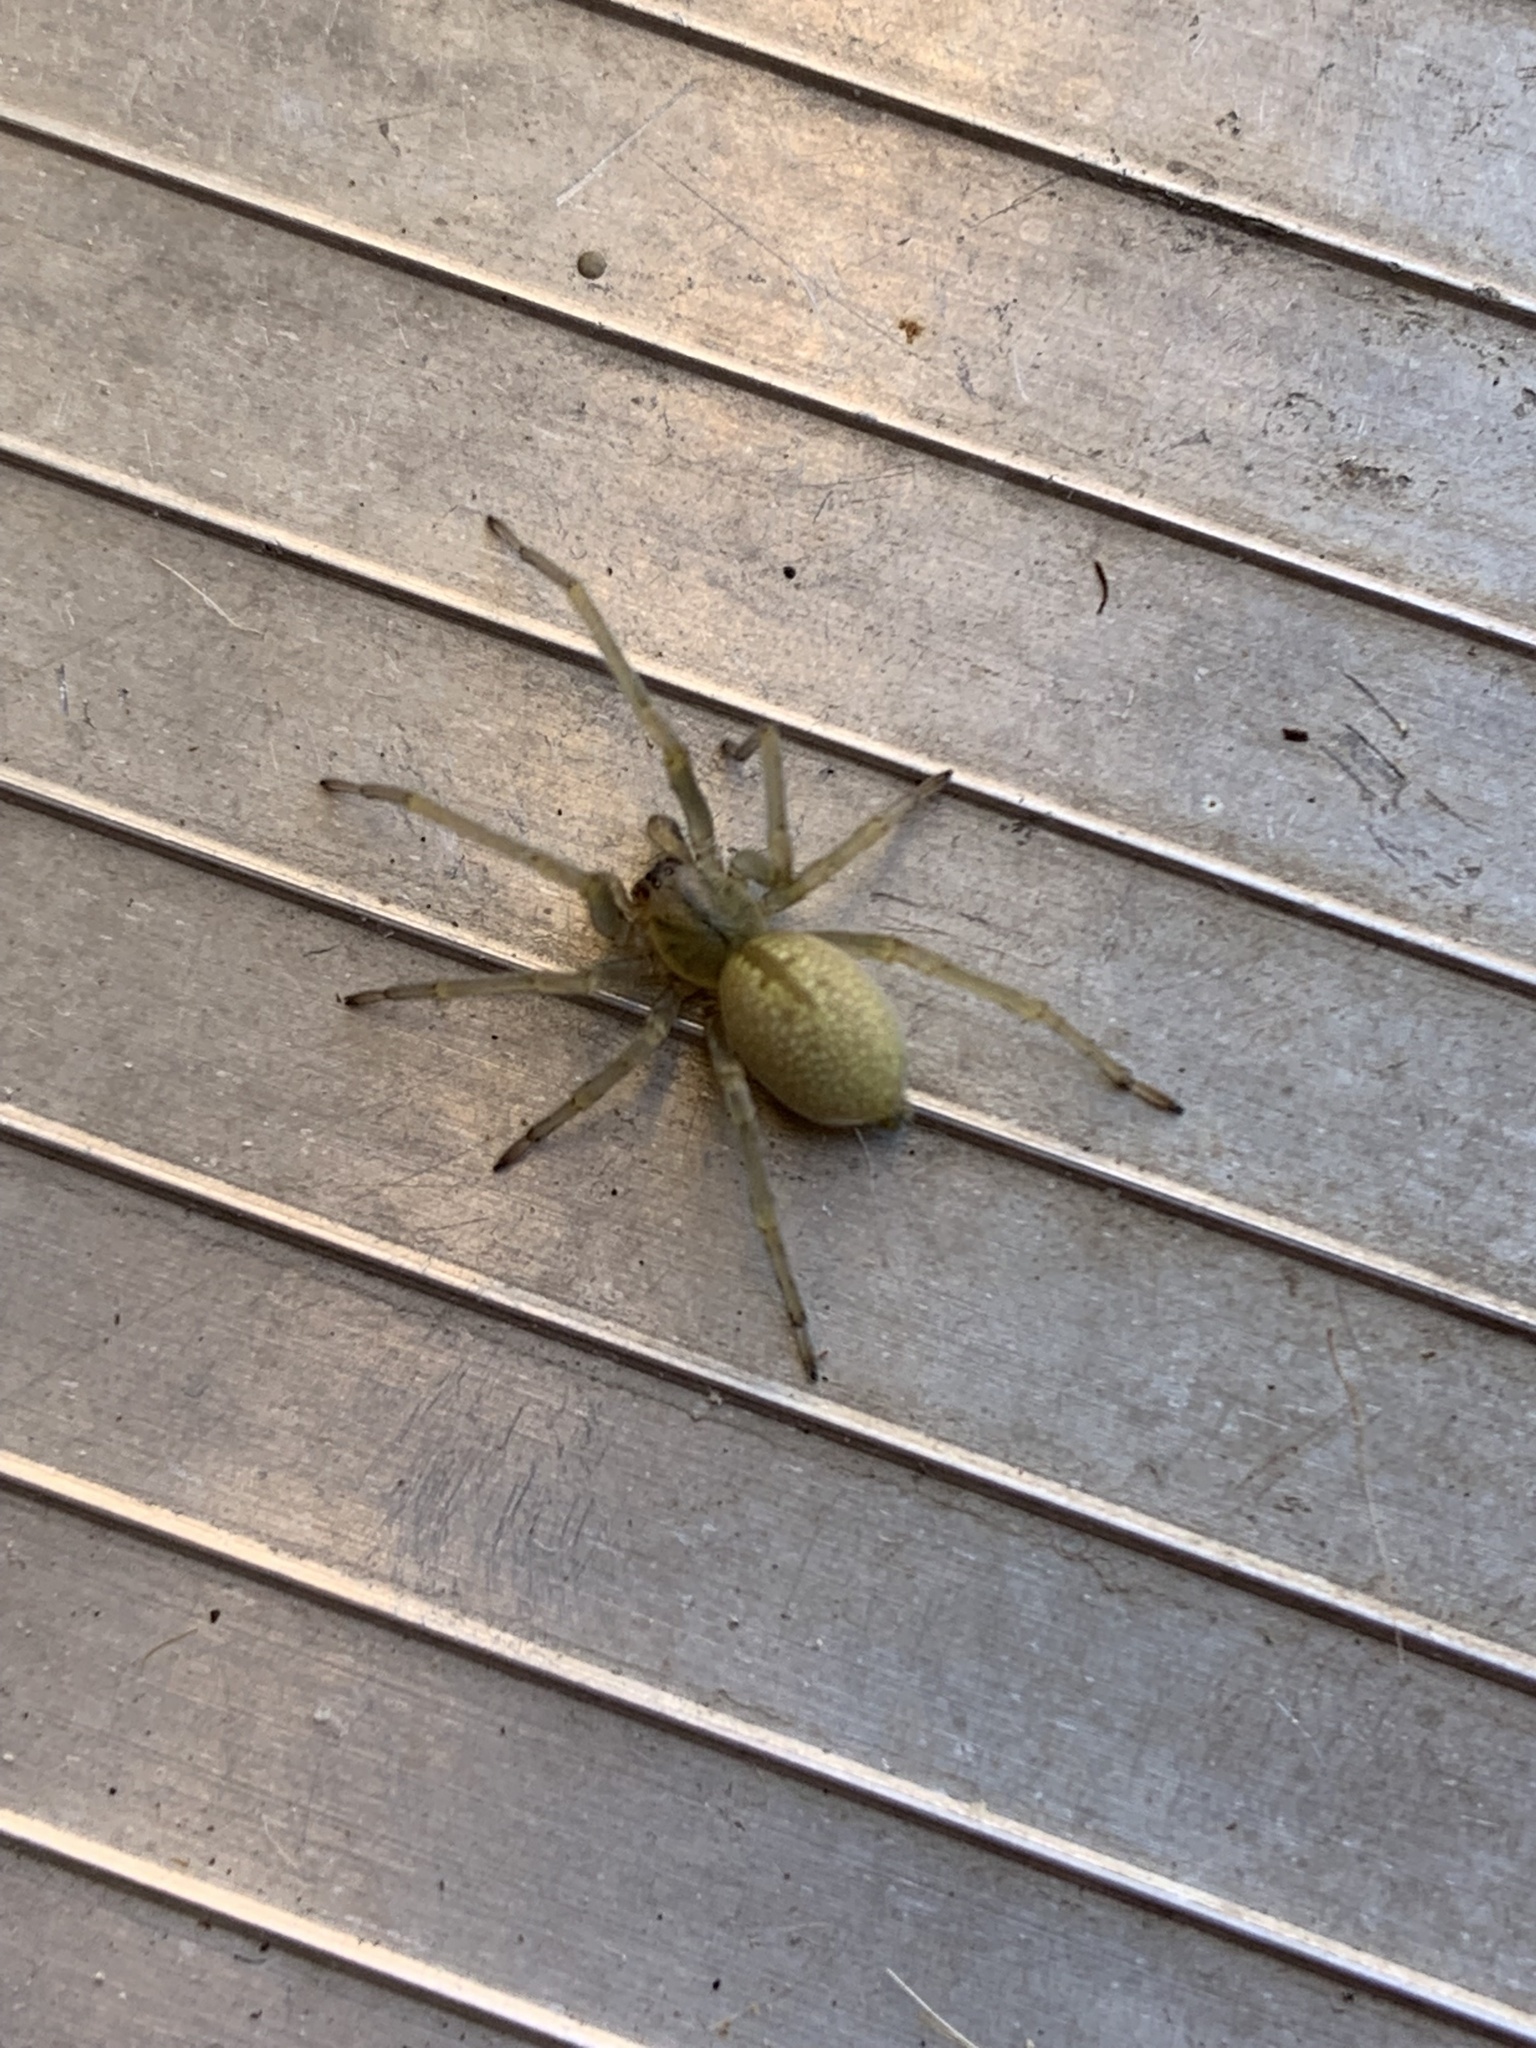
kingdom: Animalia
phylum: Arthropoda
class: Arachnida
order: Araneae
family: Cheiracanthiidae
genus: Cheiracanthium
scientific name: Cheiracanthium mildei
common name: Northern yellow sac spider
